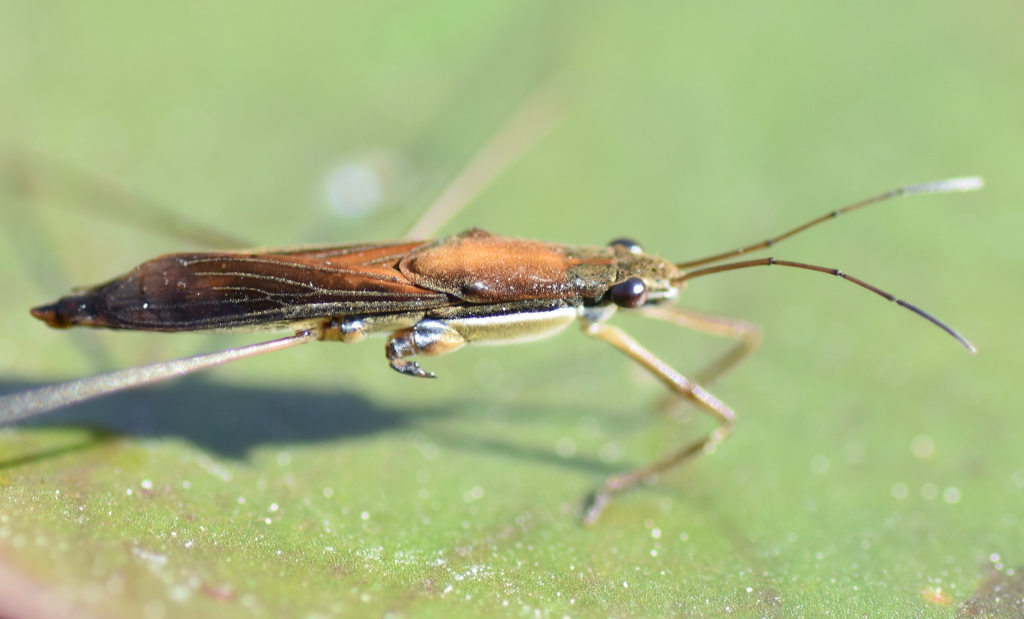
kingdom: Animalia
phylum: Arthropoda
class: Insecta
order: Hemiptera
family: Gerridae
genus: Limnoporus
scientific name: Limnoporus dissortis
